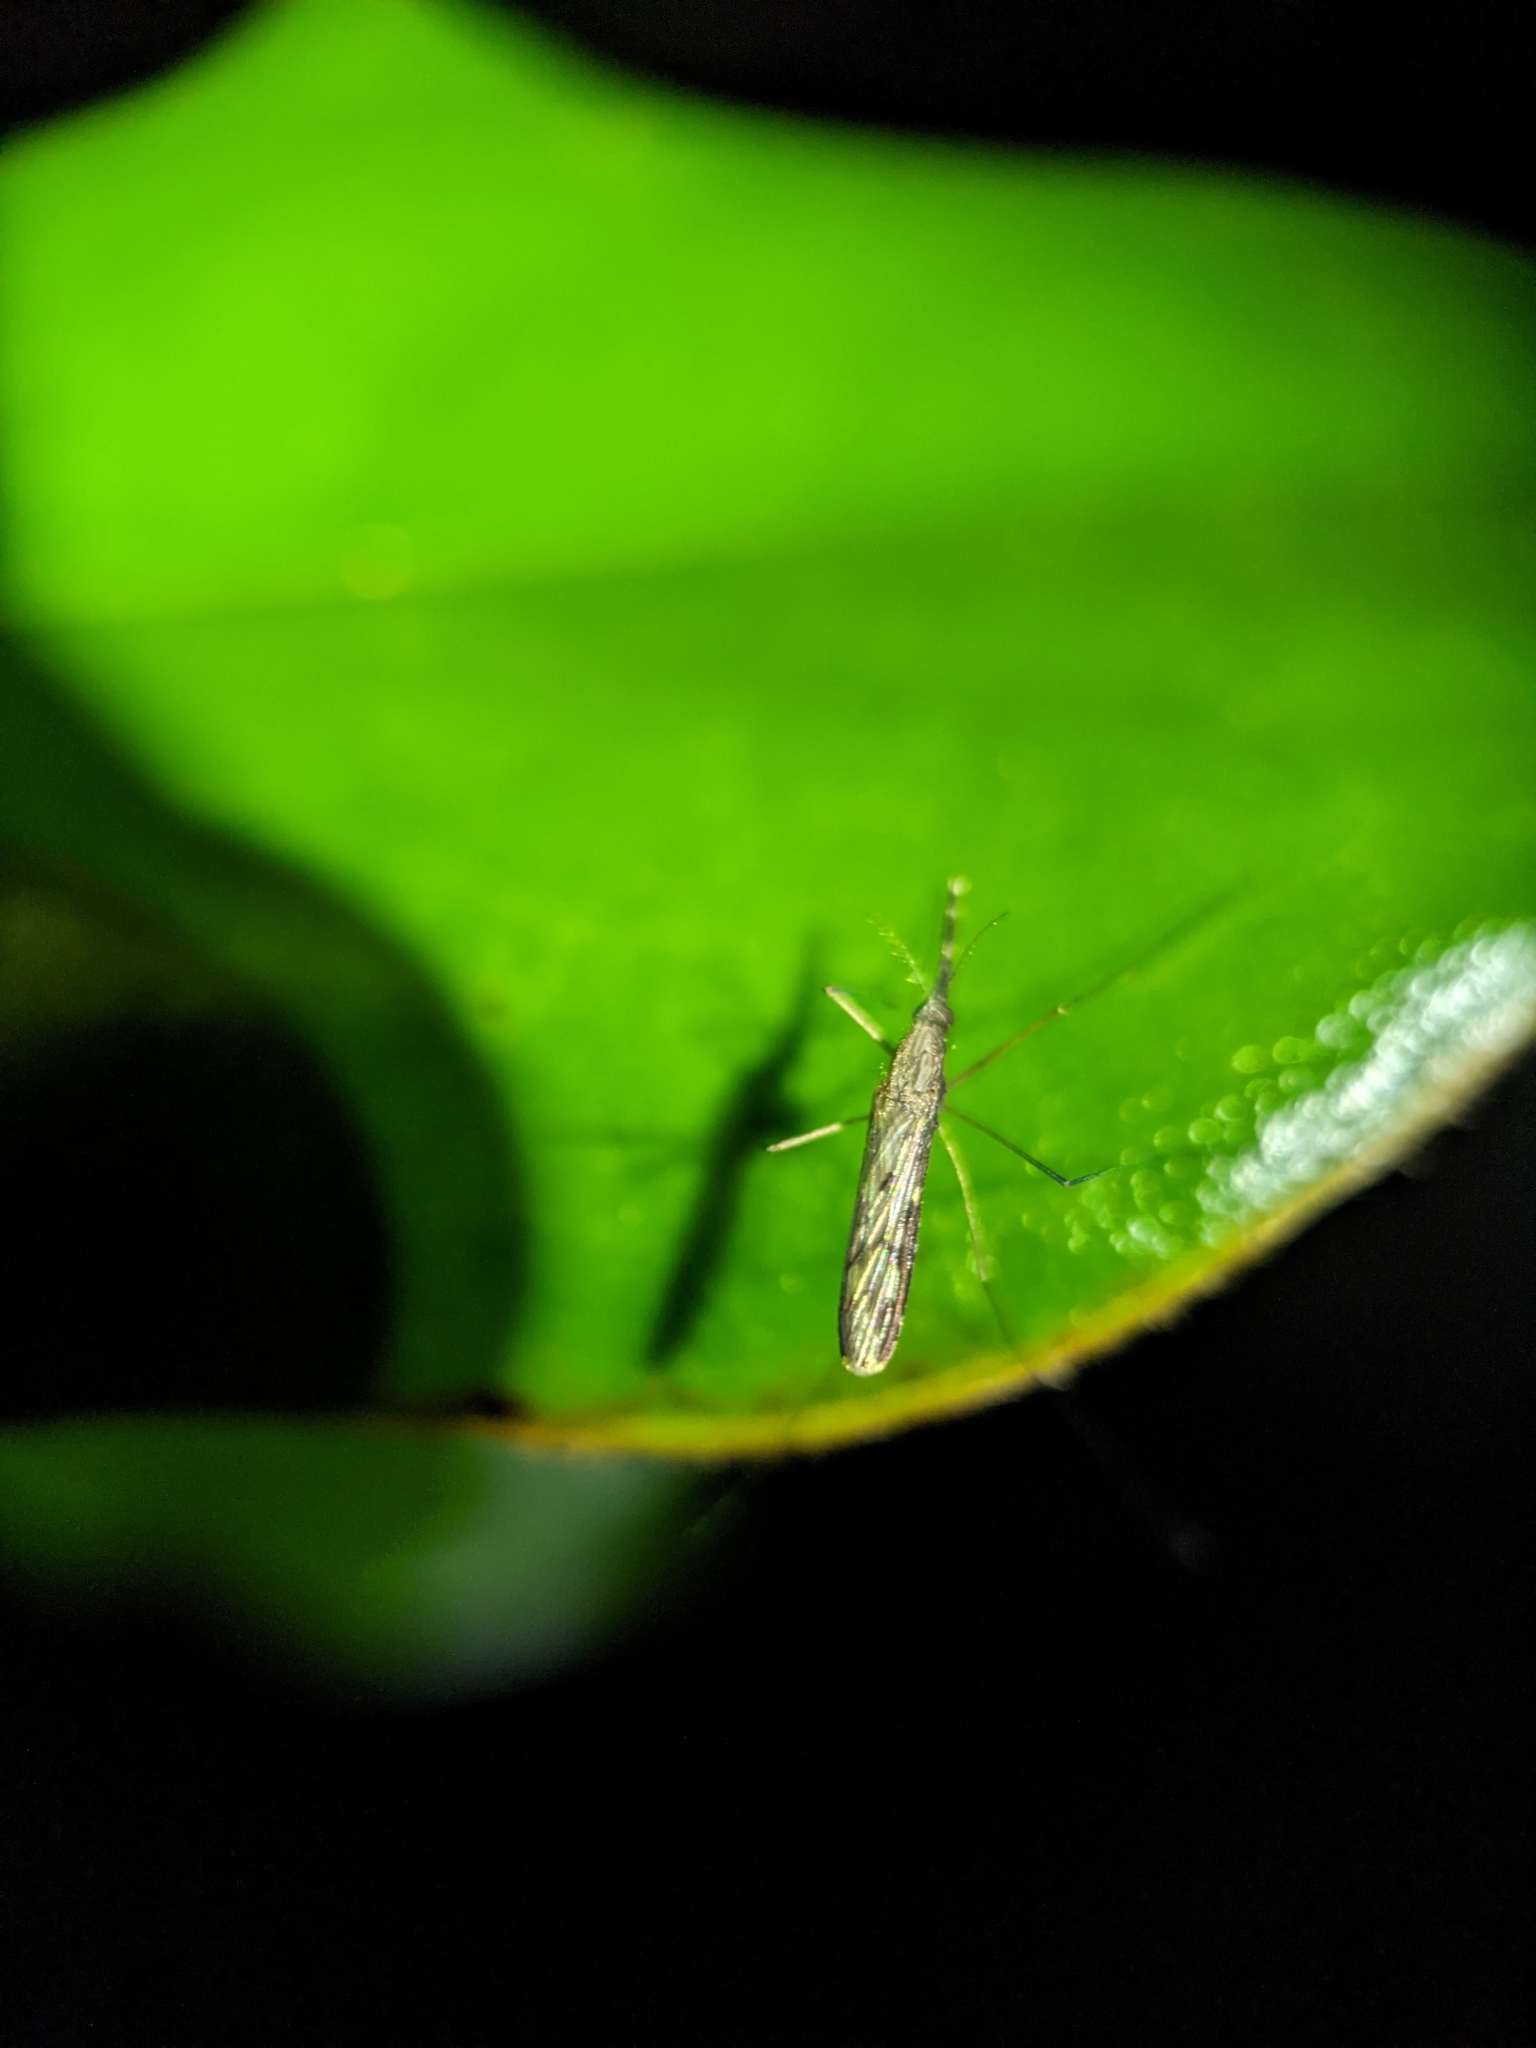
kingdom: Animalia
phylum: Arthropoda
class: Insecta
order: Diptera
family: Culicidae
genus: Anopheles
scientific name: Anopheles
